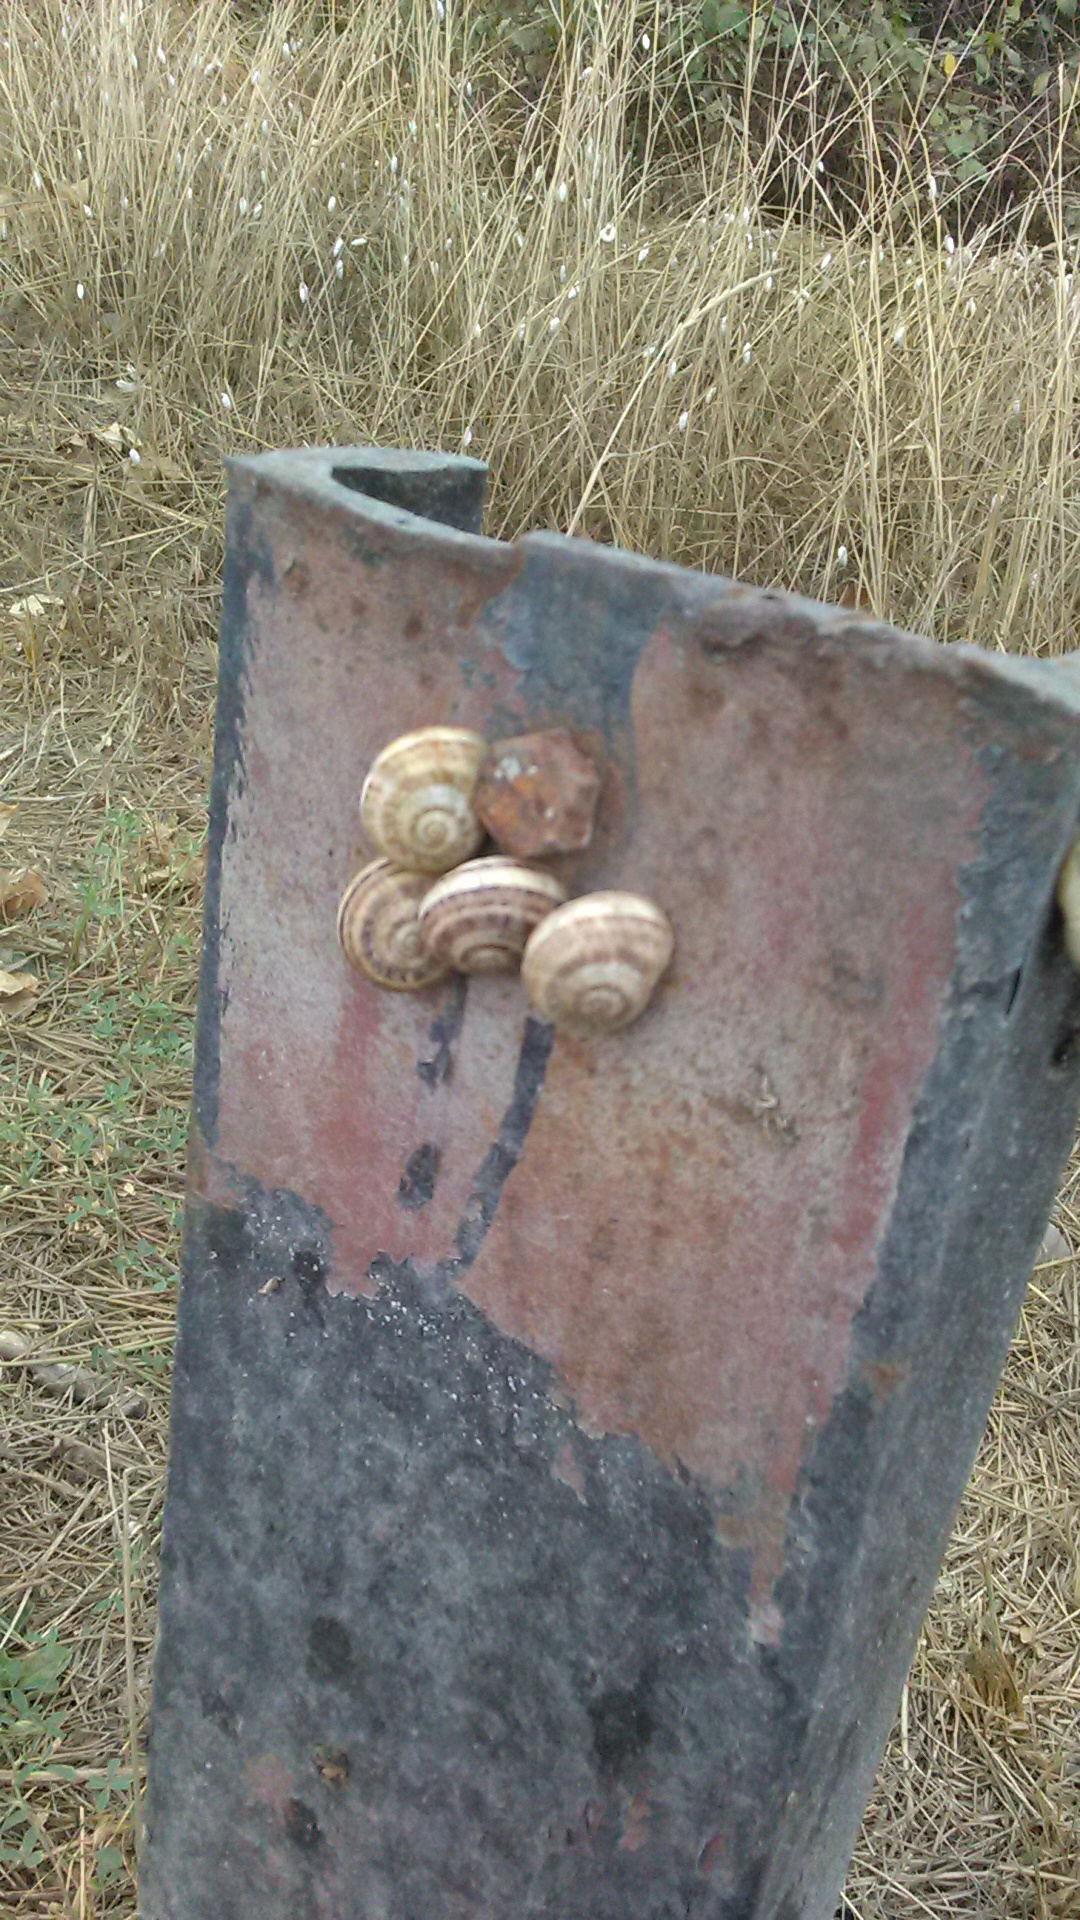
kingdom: Animalia
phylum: Mollusca
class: Gastropoda
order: Stylommatophora
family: Helicidae
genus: Eobania
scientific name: Eobania vermiculata
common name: Chocolateband snail
